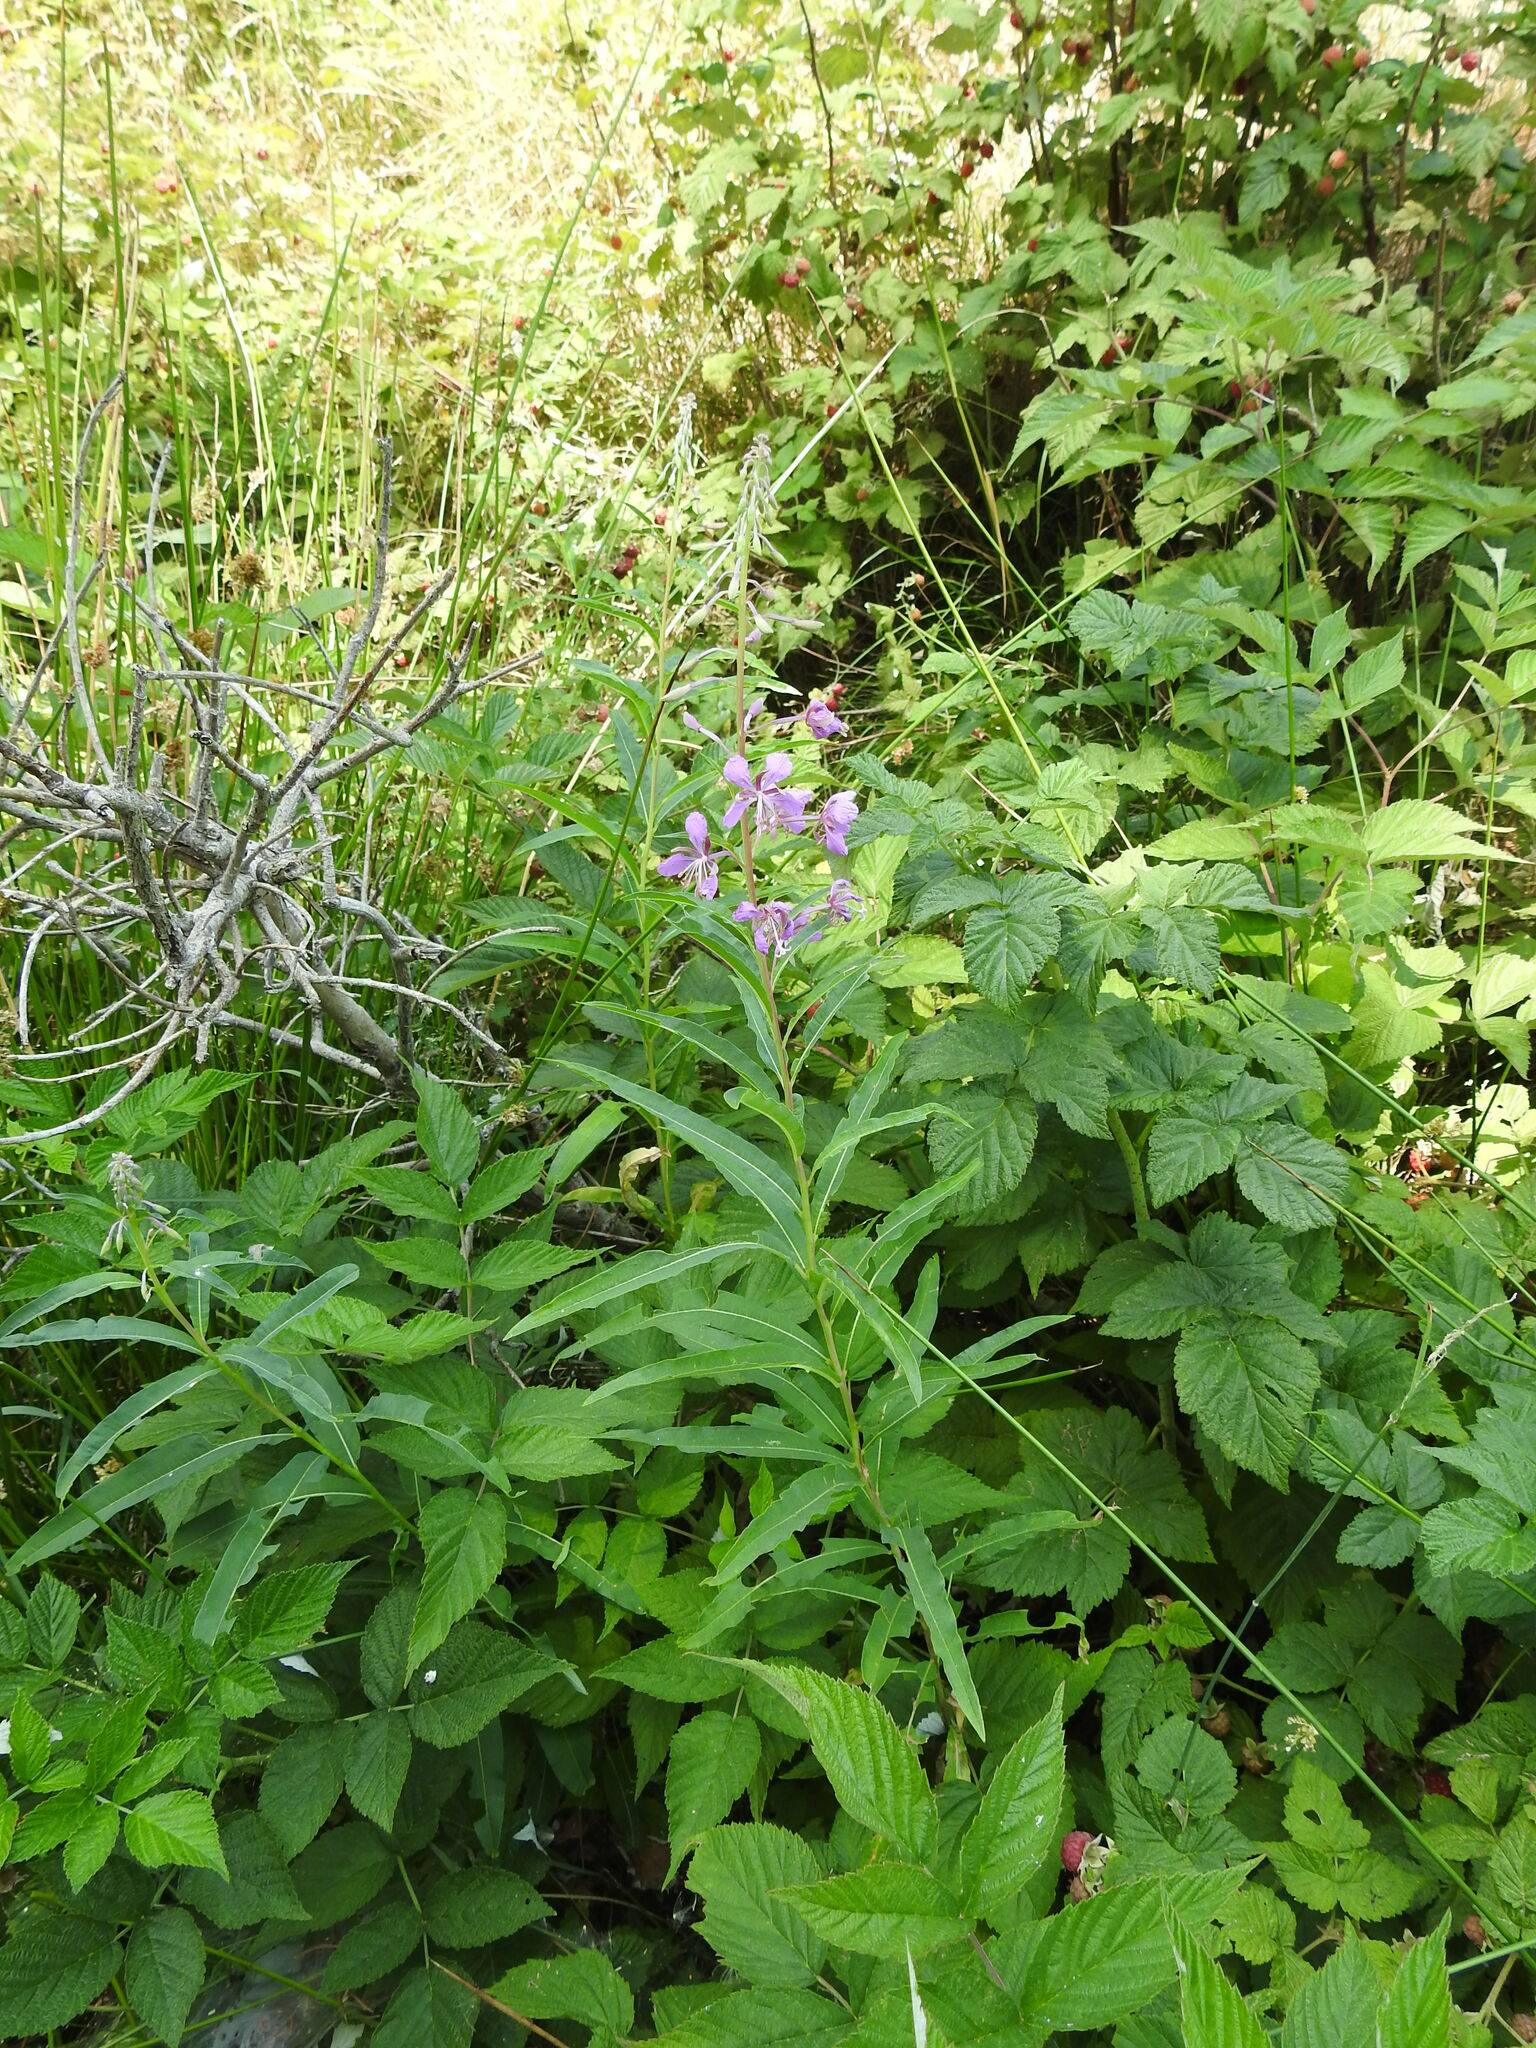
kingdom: Plantae
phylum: Tracheophyta
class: Magnoliopsida
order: Myrtales
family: Onagraceae
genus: Chamaenerion
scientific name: Chamaenerion angustifolium
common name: Fireweed
